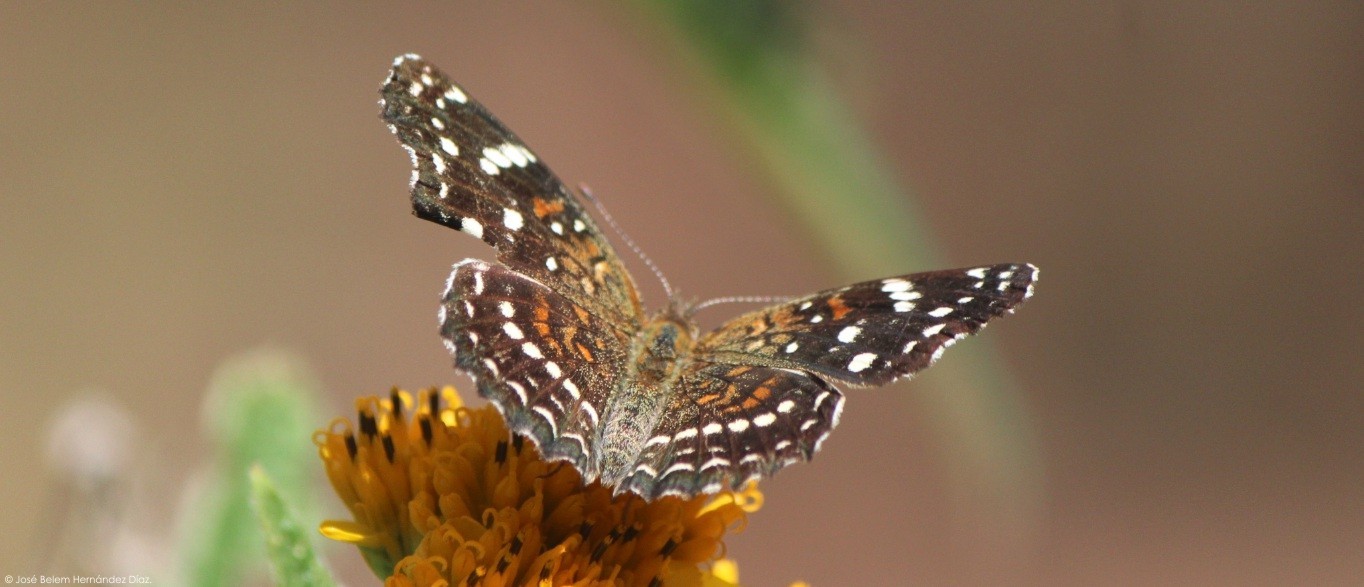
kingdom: Animalia
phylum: Arthropoda
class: Insecta
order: Lepidoptera
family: Nymphalidae
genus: Anthanassa
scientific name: Anthanassa texana
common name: Texan crescent
